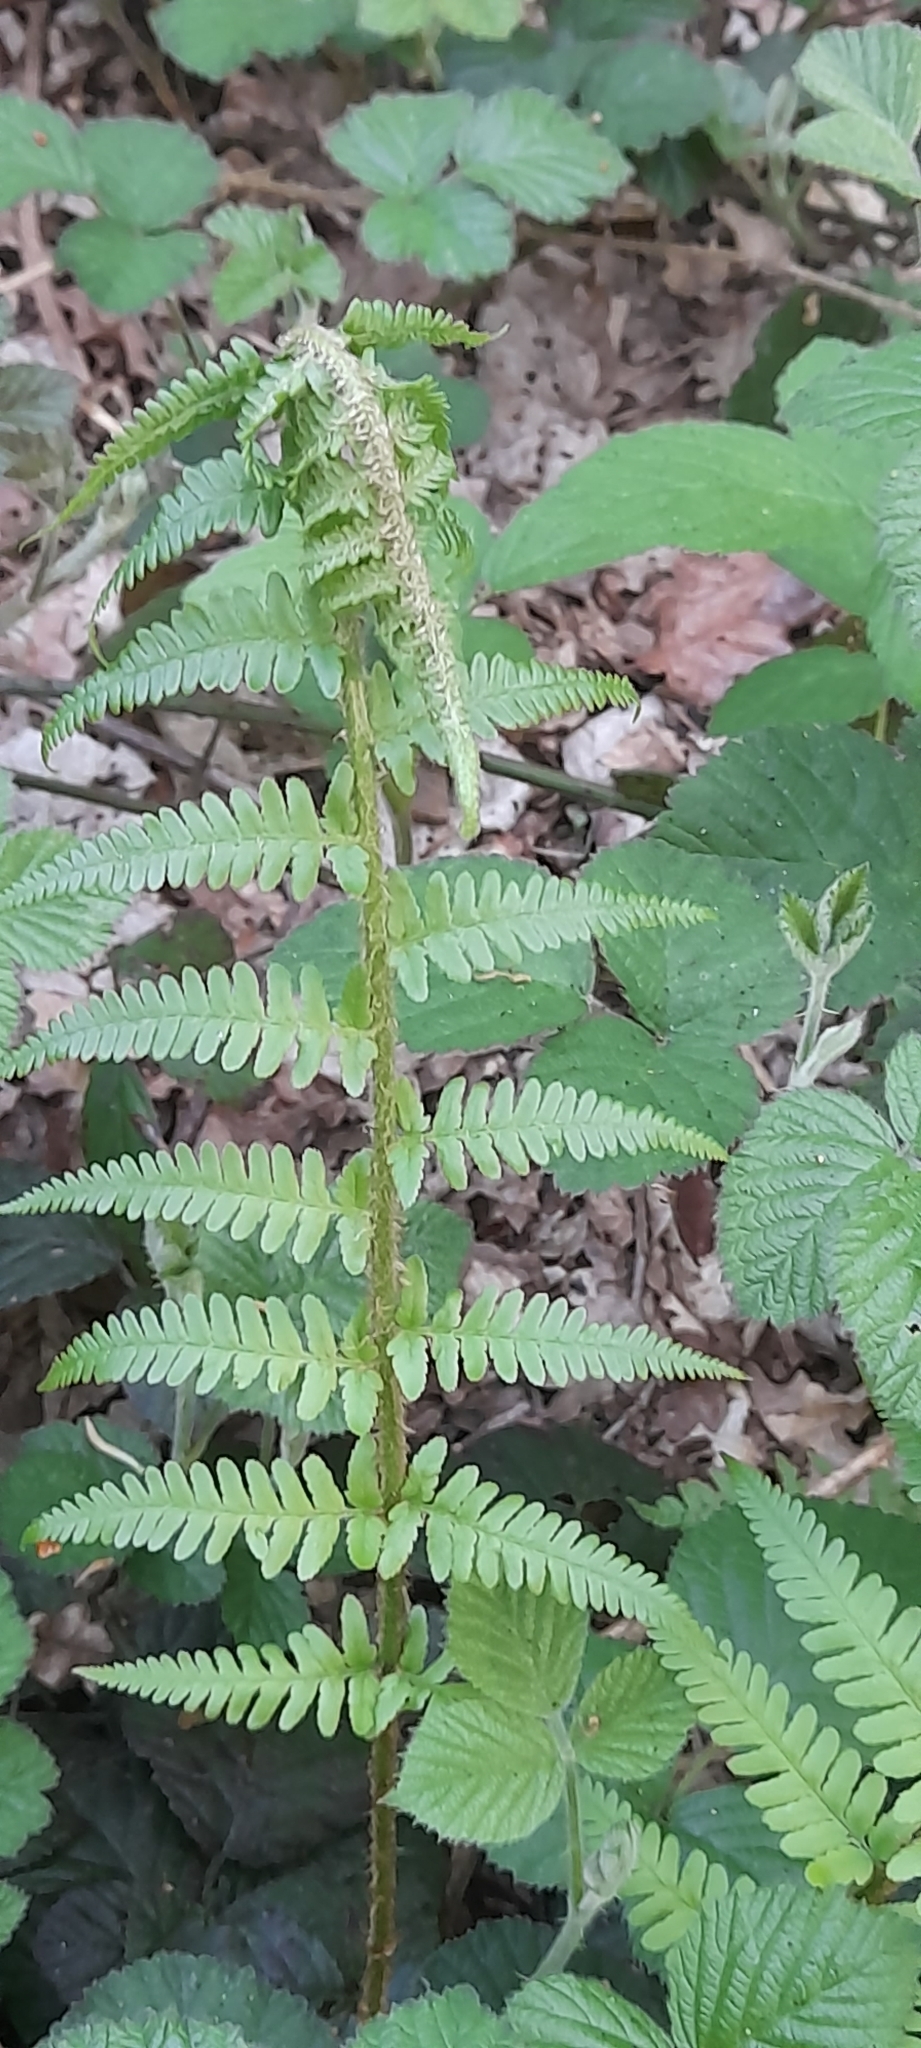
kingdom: Plantae
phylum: Tracheophyta
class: Polypodiopsida
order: Polypodiales
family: Dryopteridaceae
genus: Dryopteris
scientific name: Dryopteris filix-mas
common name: Male fern
